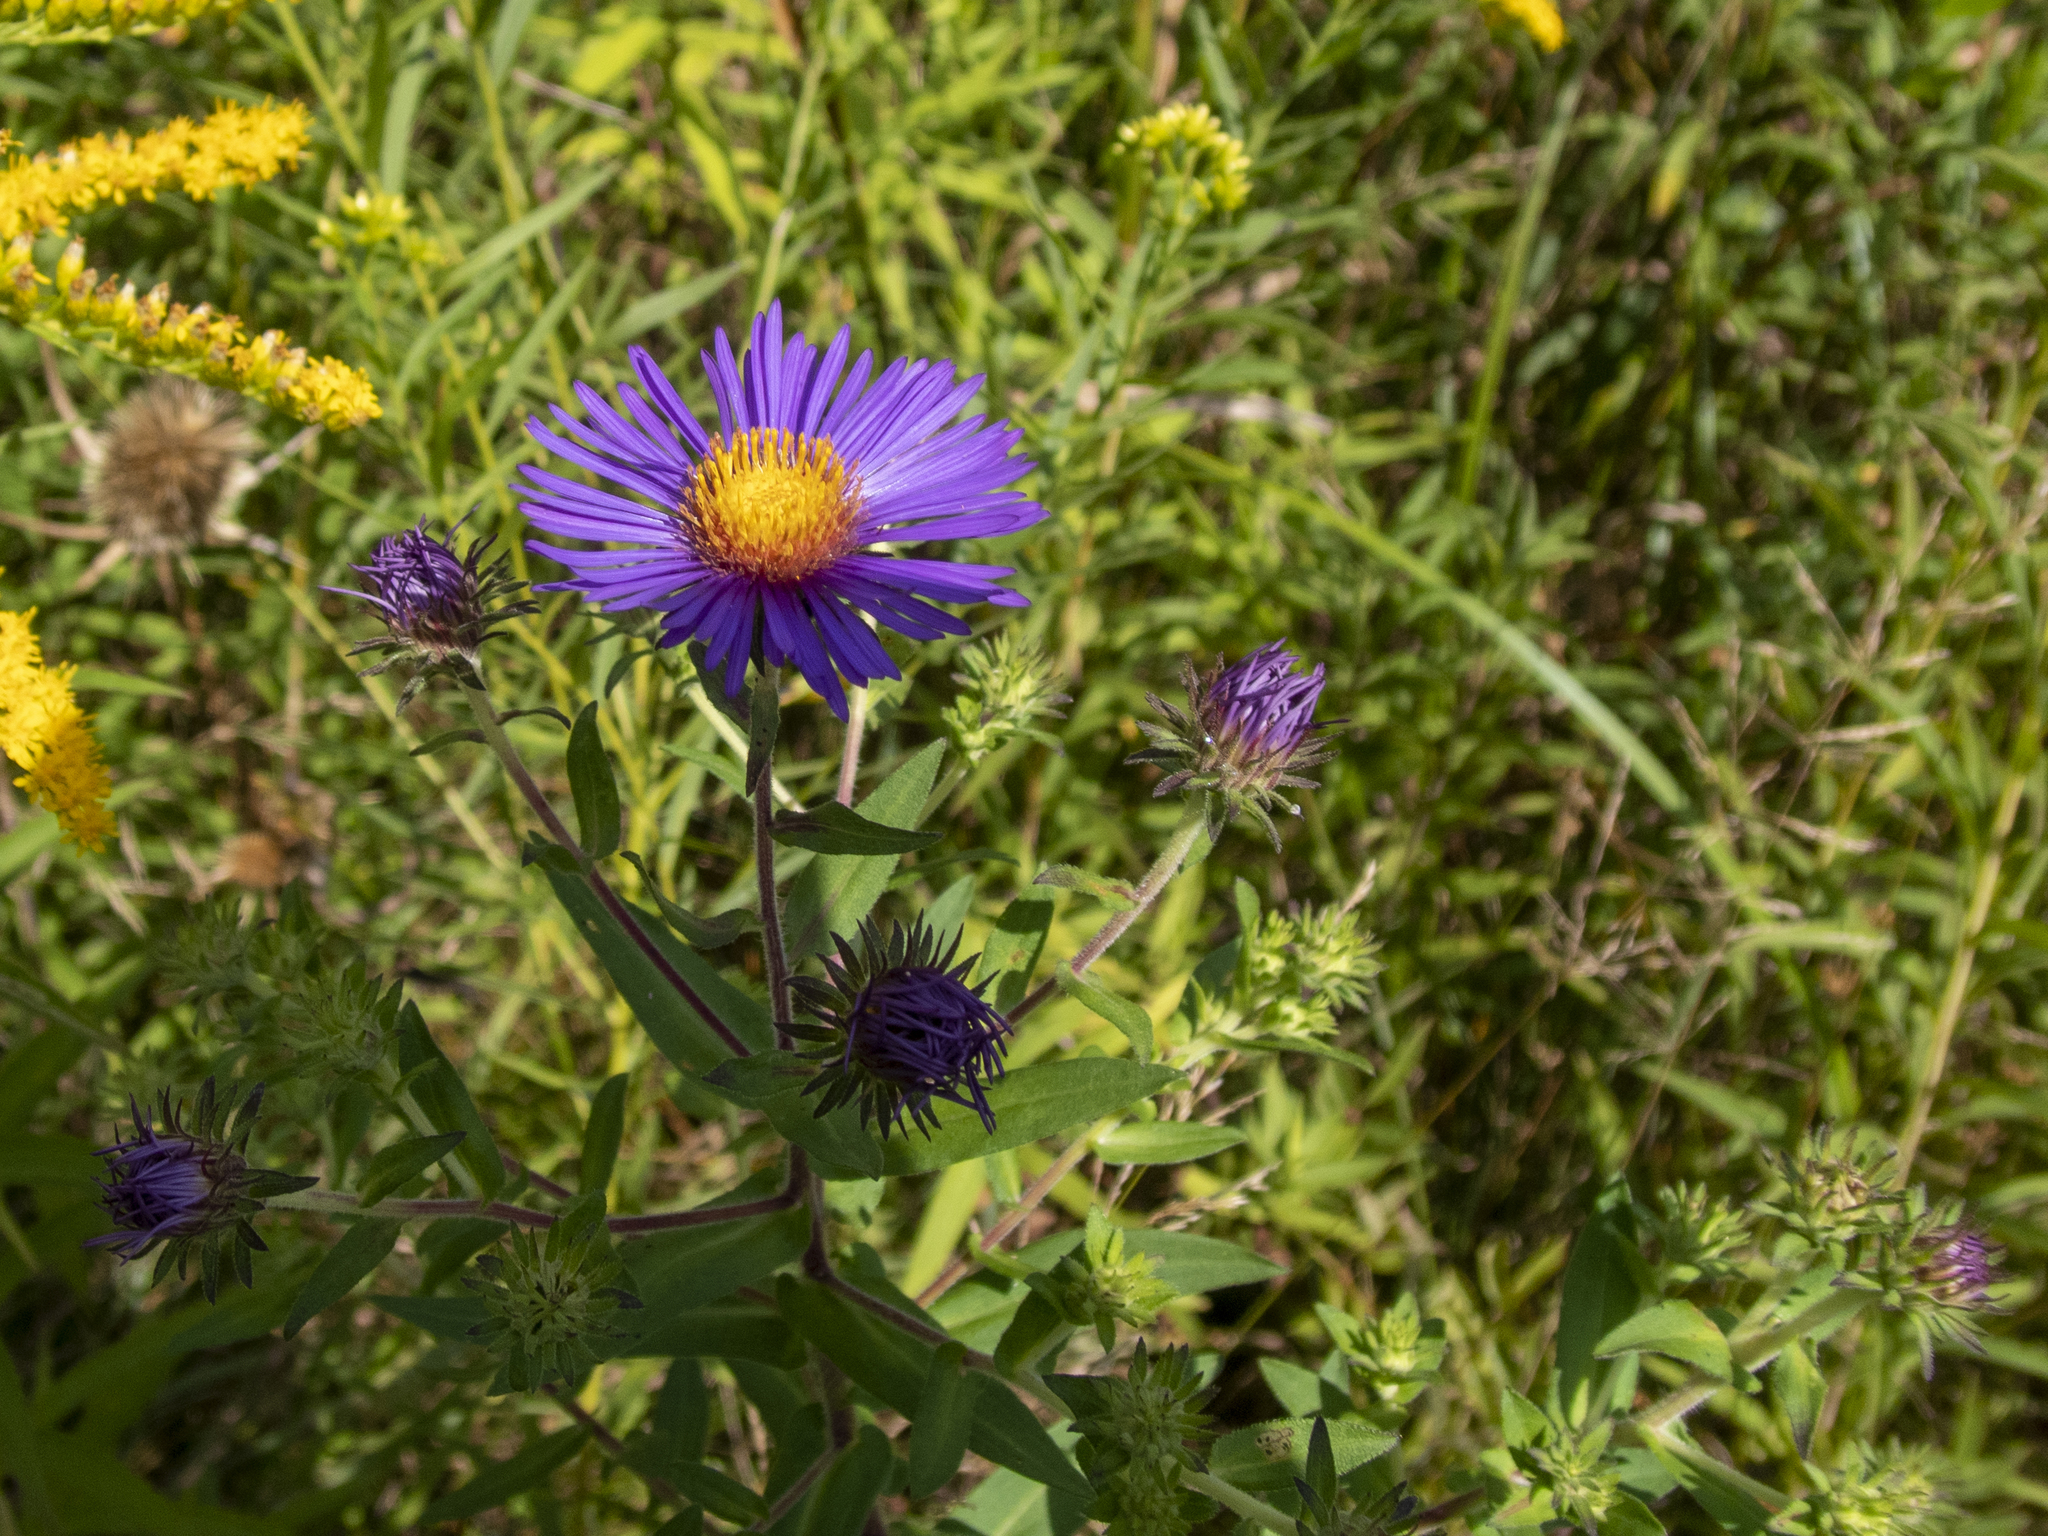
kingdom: Plantae
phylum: Tracheophyta
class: Magnoliopsida
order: Asterales
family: Asteraceae
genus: Symphyotrichum
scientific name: Symphyotrichum novae-angliae
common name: Michaelmas daisy
